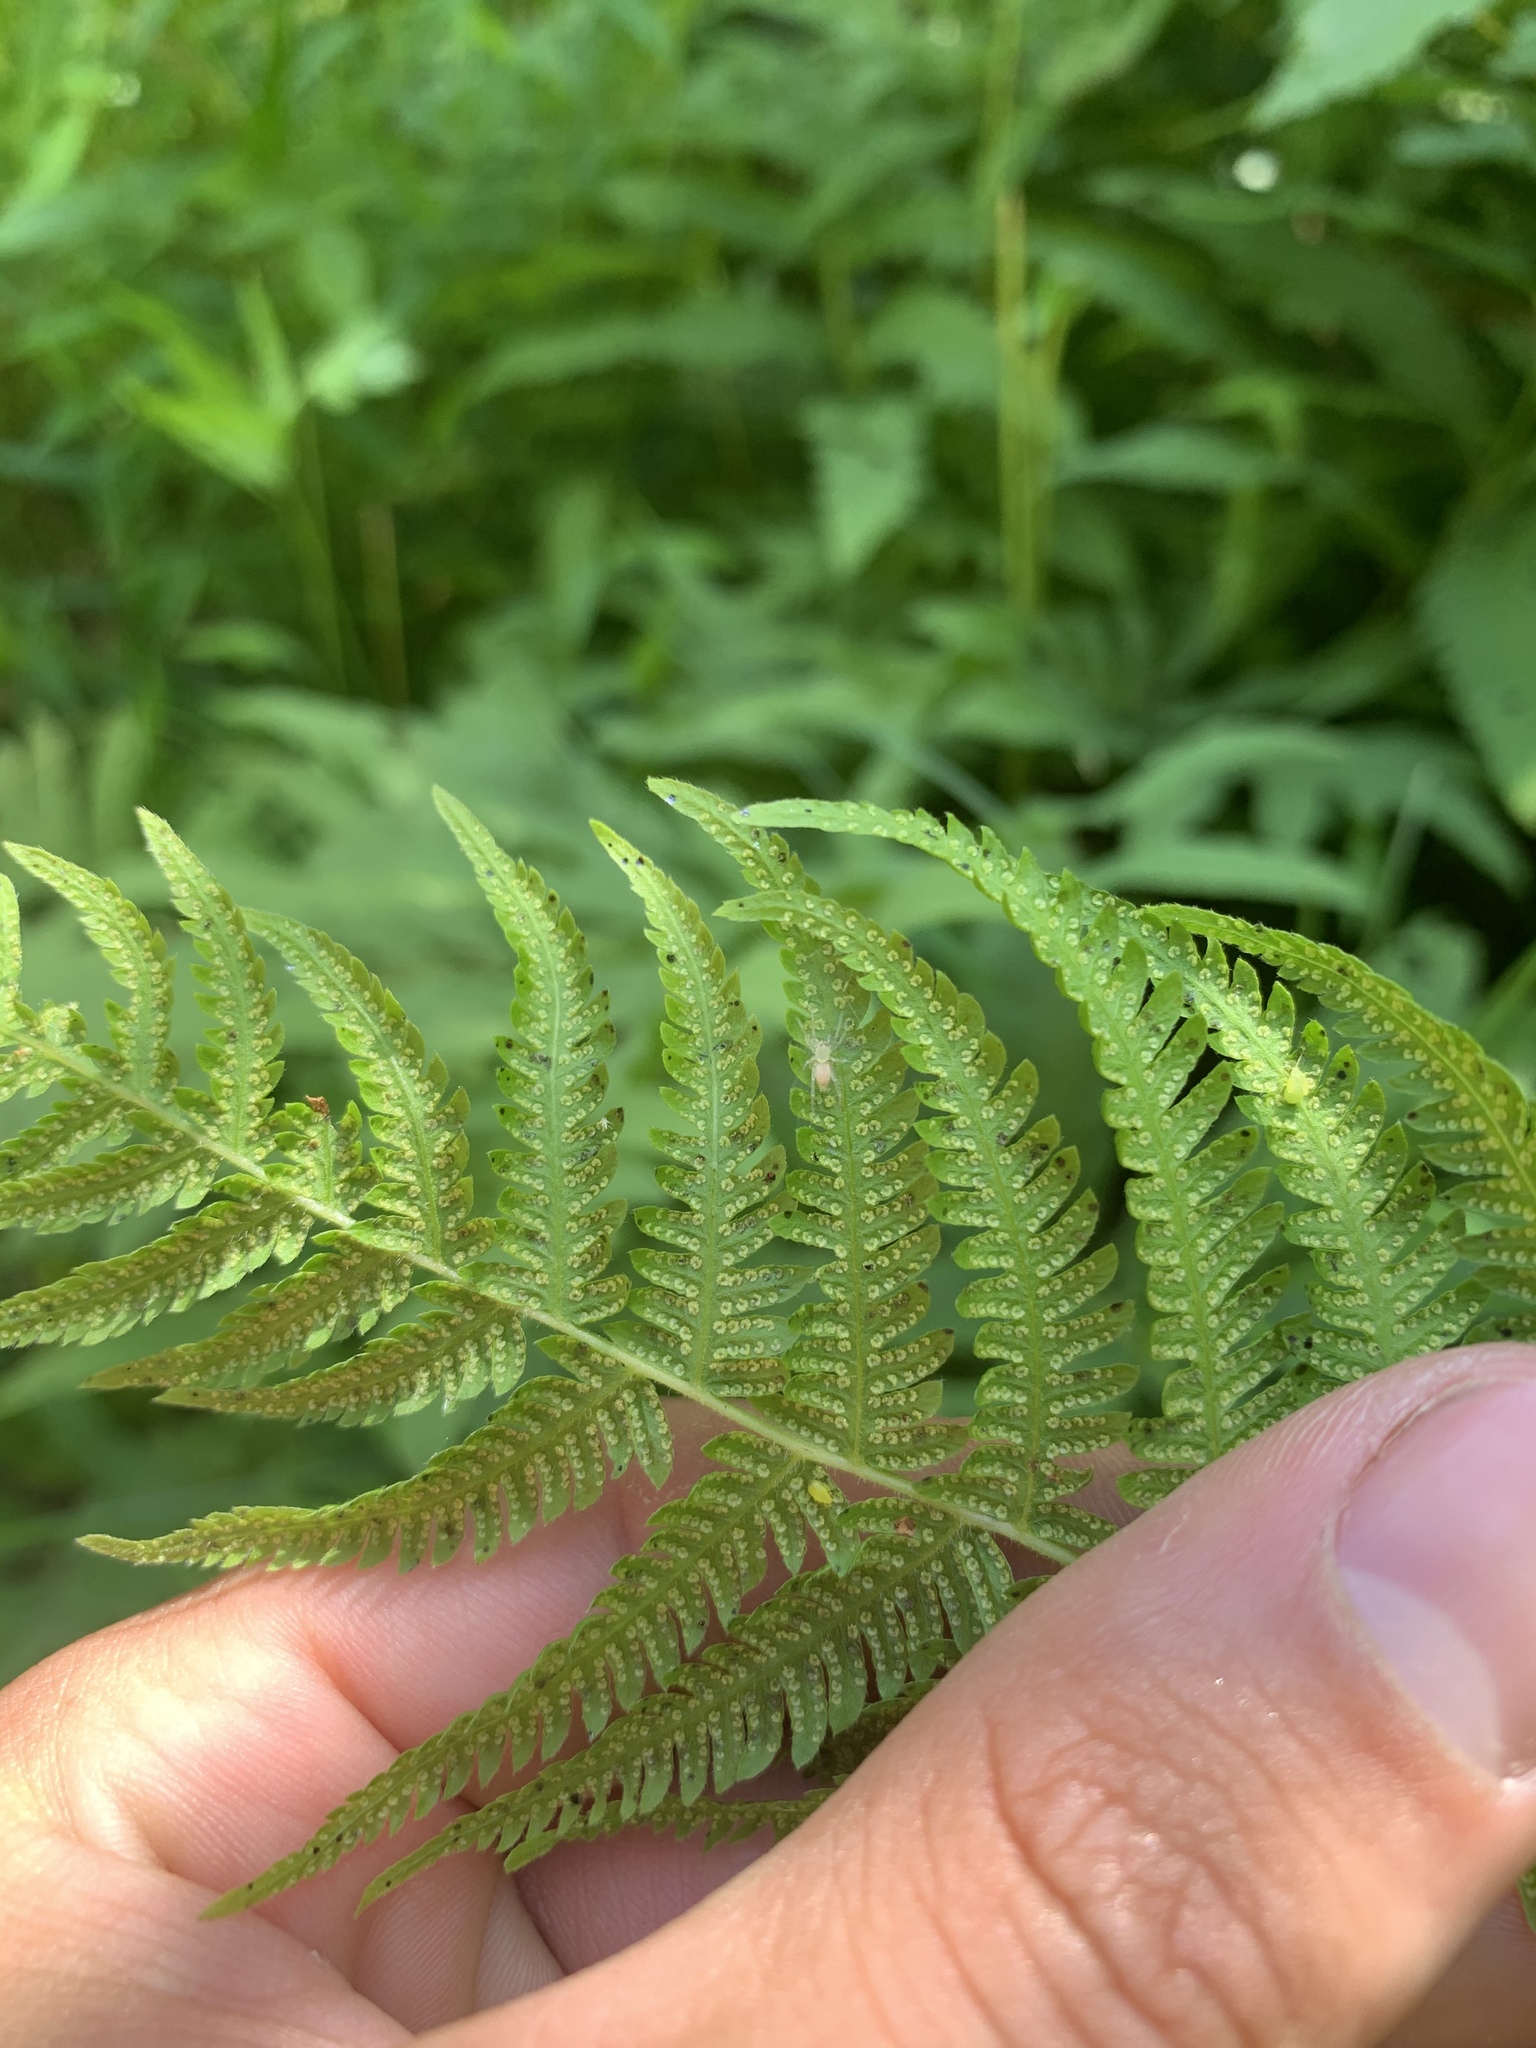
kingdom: Plantae
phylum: Tracheophyta
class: Polypodiopsida
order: Polypodiales
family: Thelypteridaceae
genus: Amauropelta
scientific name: Amauropelta noveboracensis
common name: New york fern
